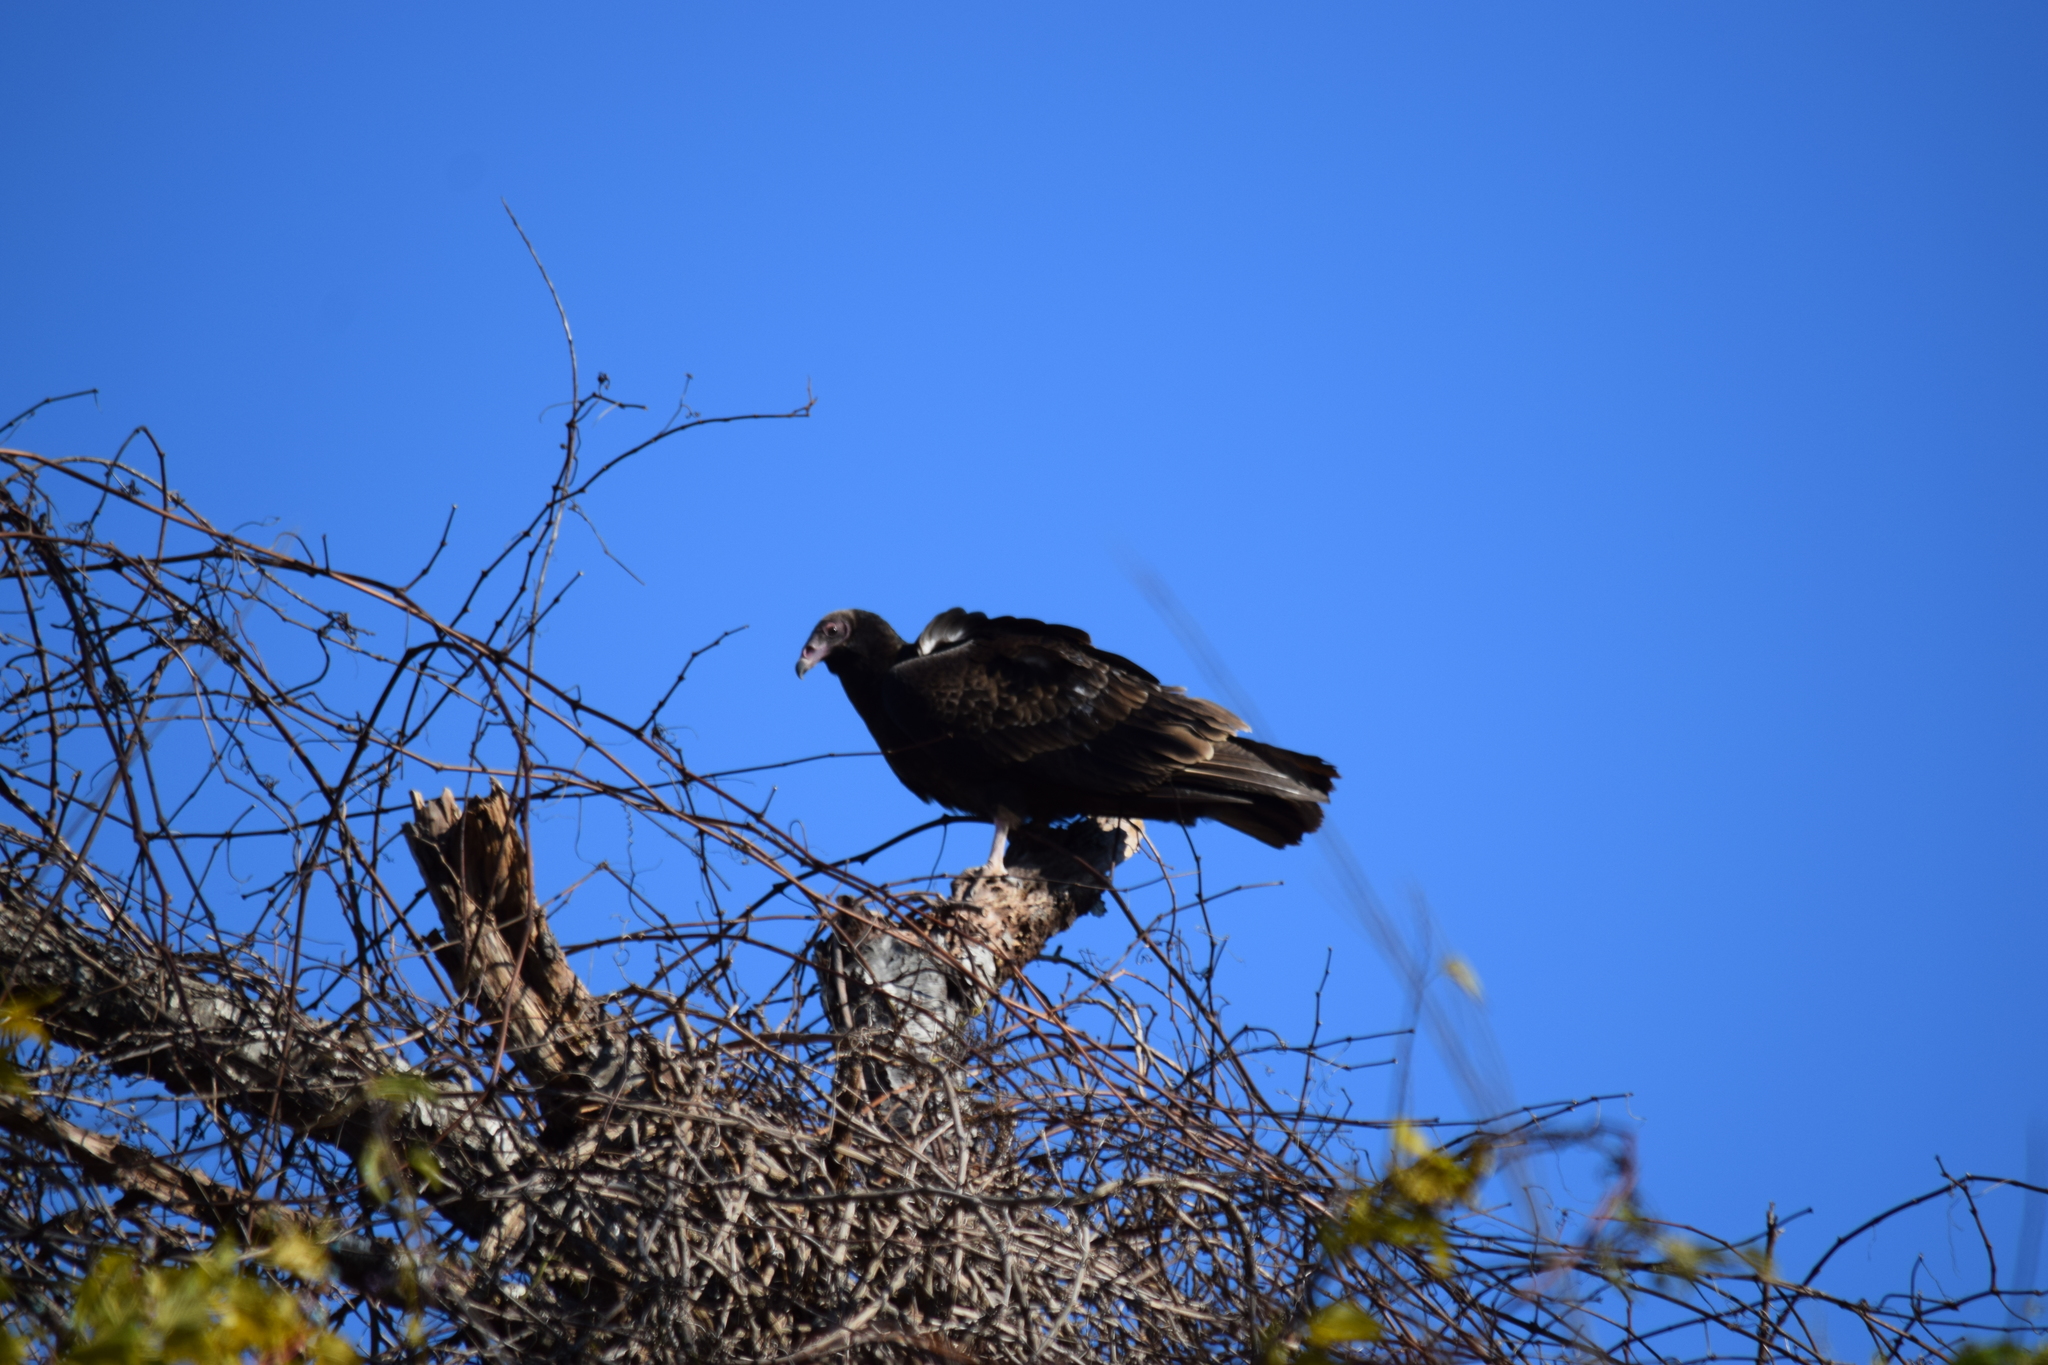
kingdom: Animalia
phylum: Chordata
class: Aves
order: Accipitriformes
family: Cathartidae
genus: Cathartes
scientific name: Cathartes aura
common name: Turkey vulture
